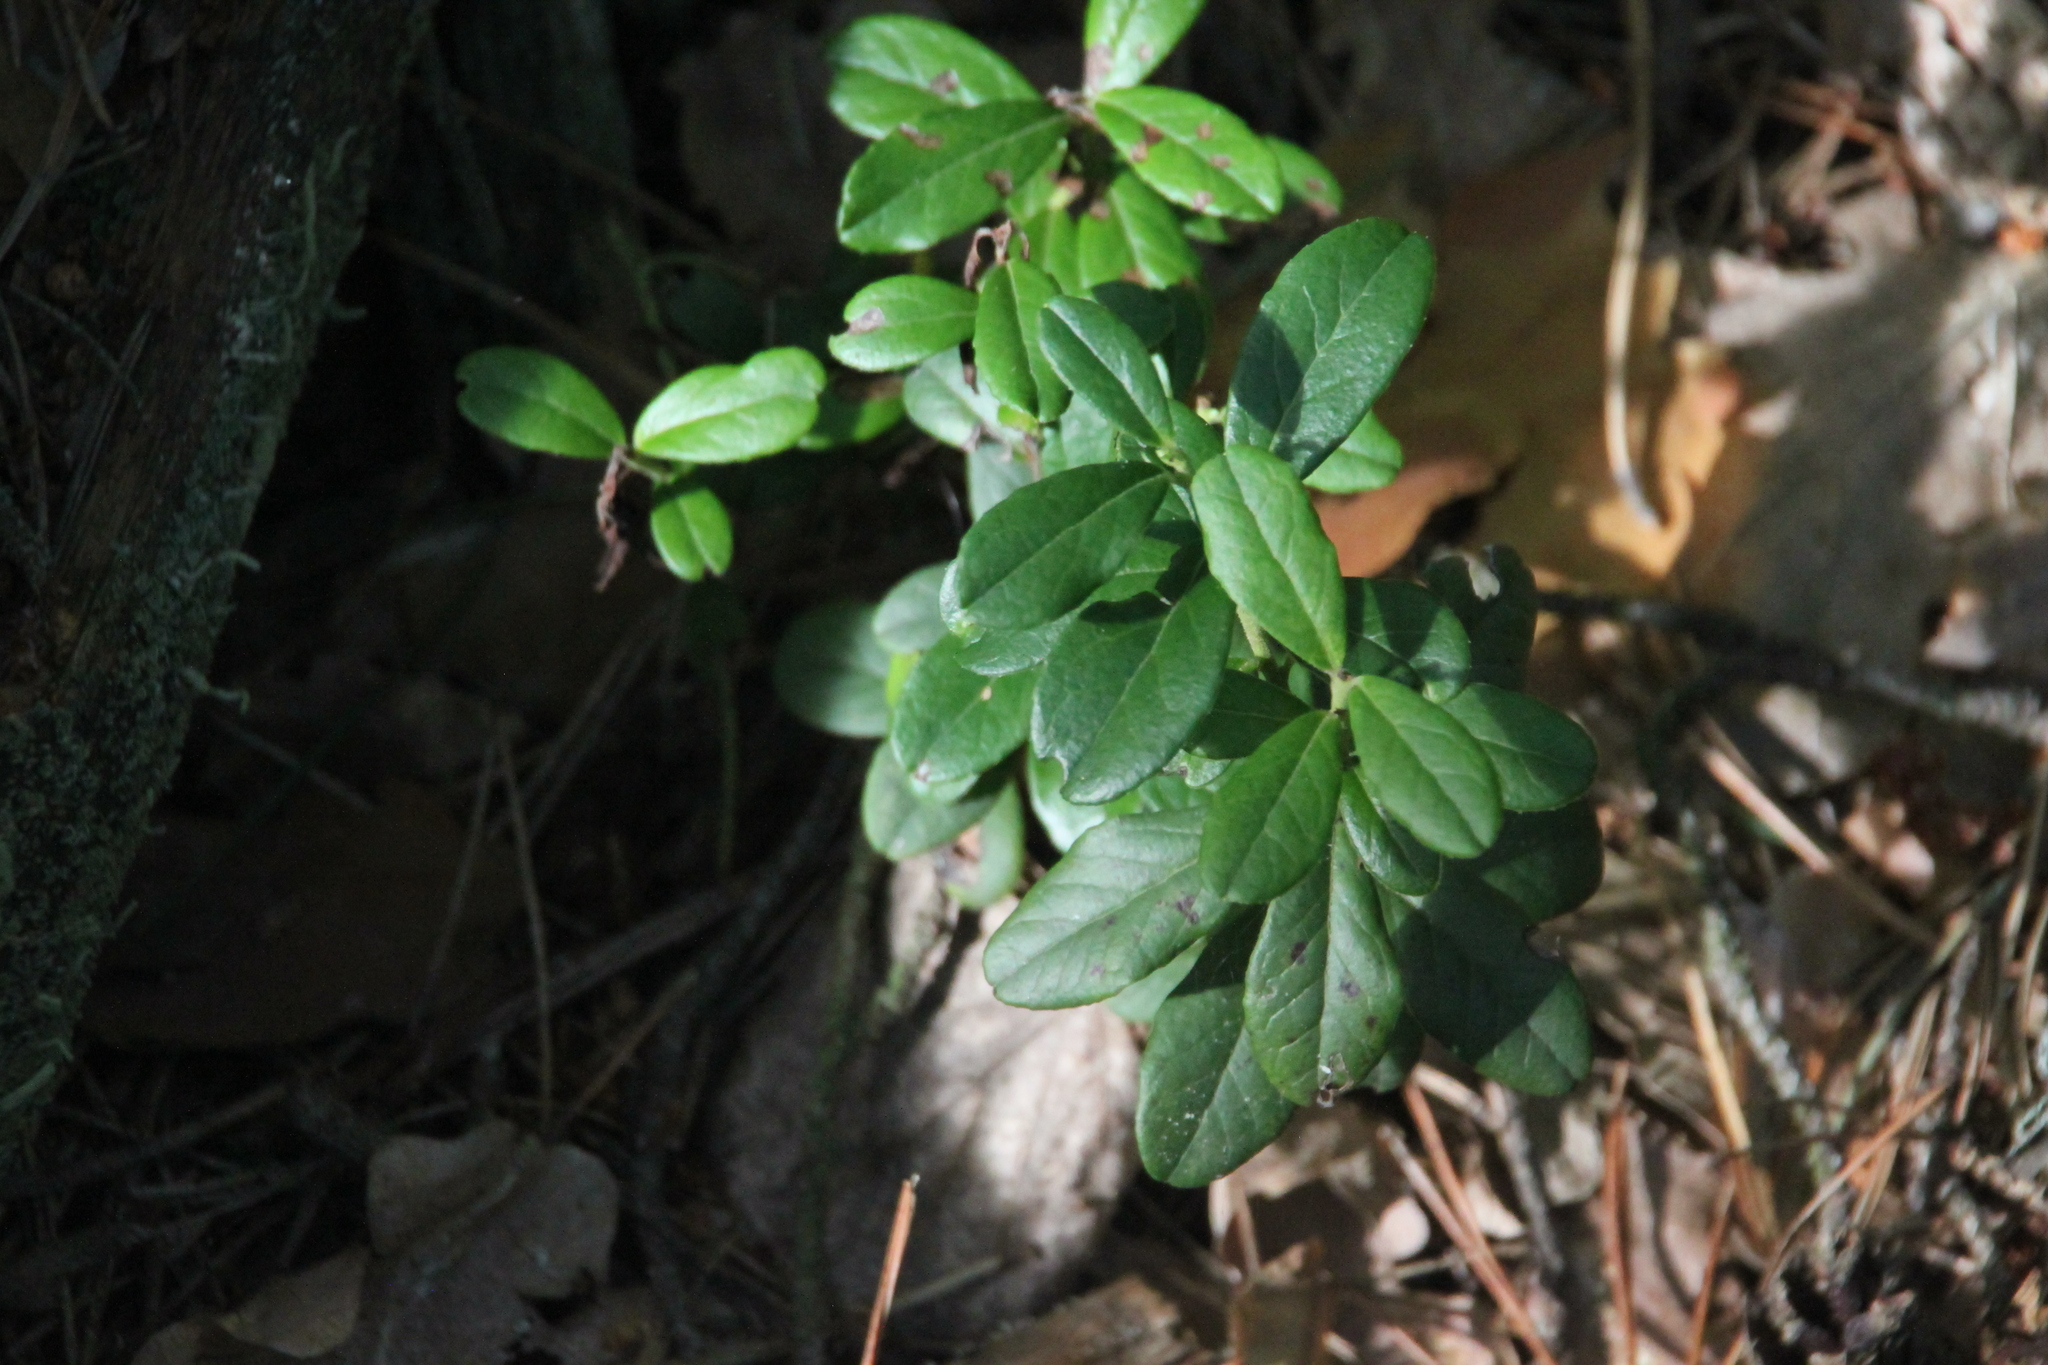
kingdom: Plantae
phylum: Tracheophyta
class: Magnoliopsida
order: Ericales
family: Ericaceae
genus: Vaccinium
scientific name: Vaccinium vitis-idaea
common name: Cowberry
